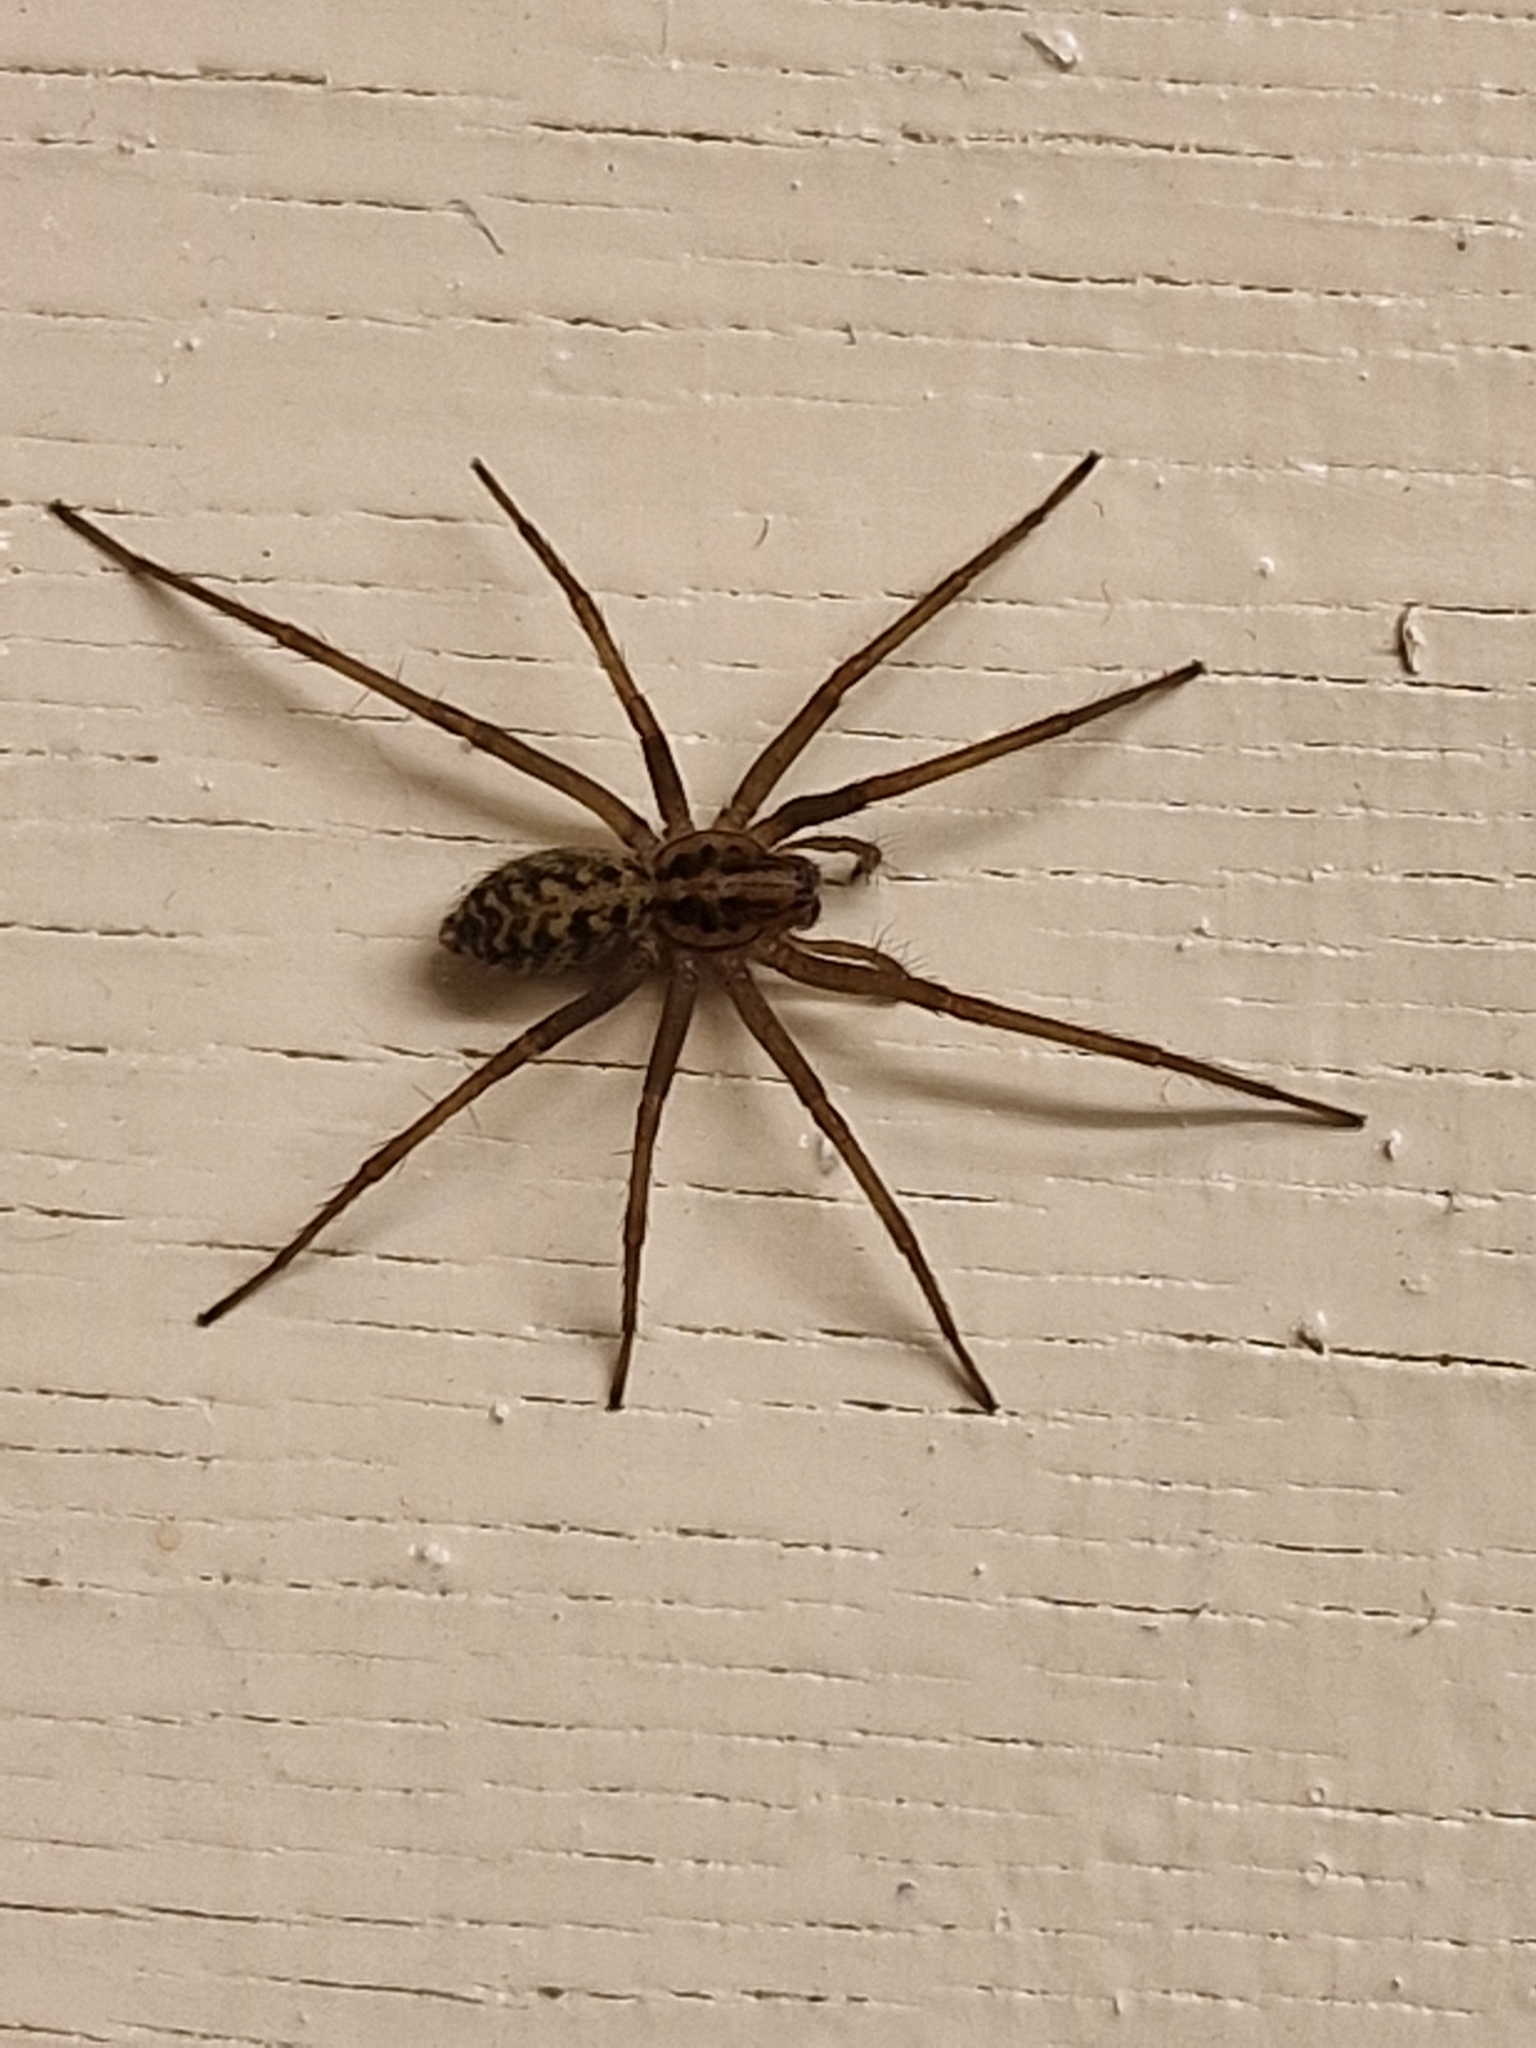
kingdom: Animalia
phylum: Arthropoda
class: Arachnida
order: Araneae
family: Agelenidae
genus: Eratigena
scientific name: Eratigena duellica
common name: Giant house spider
